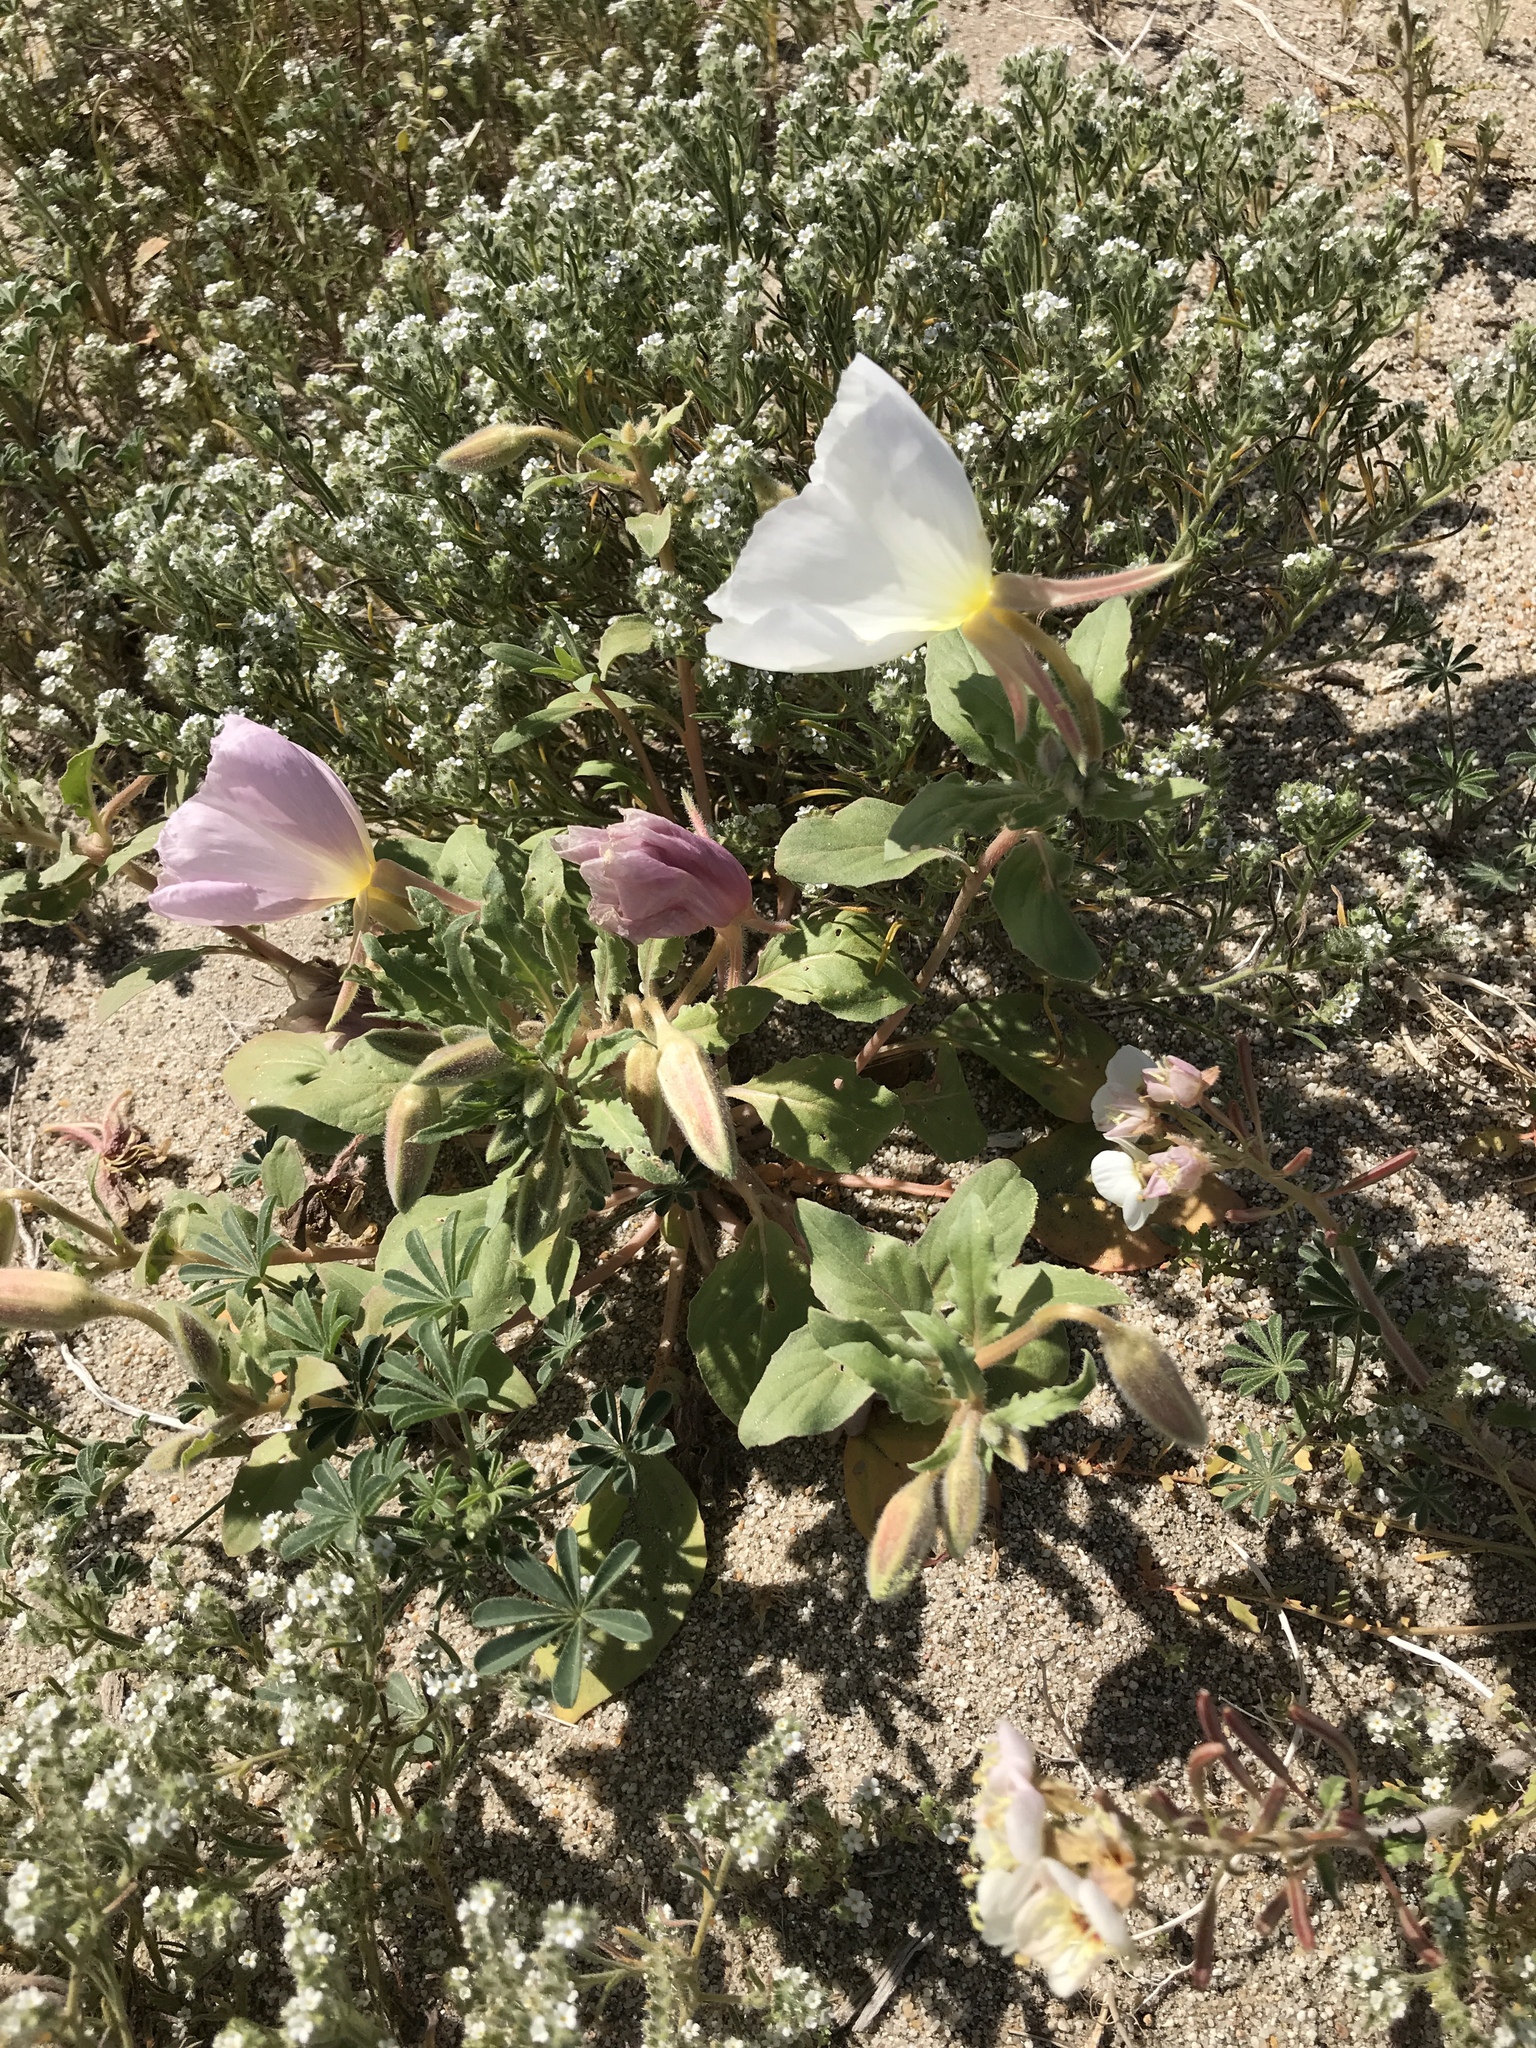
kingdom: Plantae
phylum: Tracheophyta
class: Magnoliopsida
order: Myrtales
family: Onagraceae
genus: Oenothera
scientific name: Oenothera deltoides
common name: Basket evening-primrose
